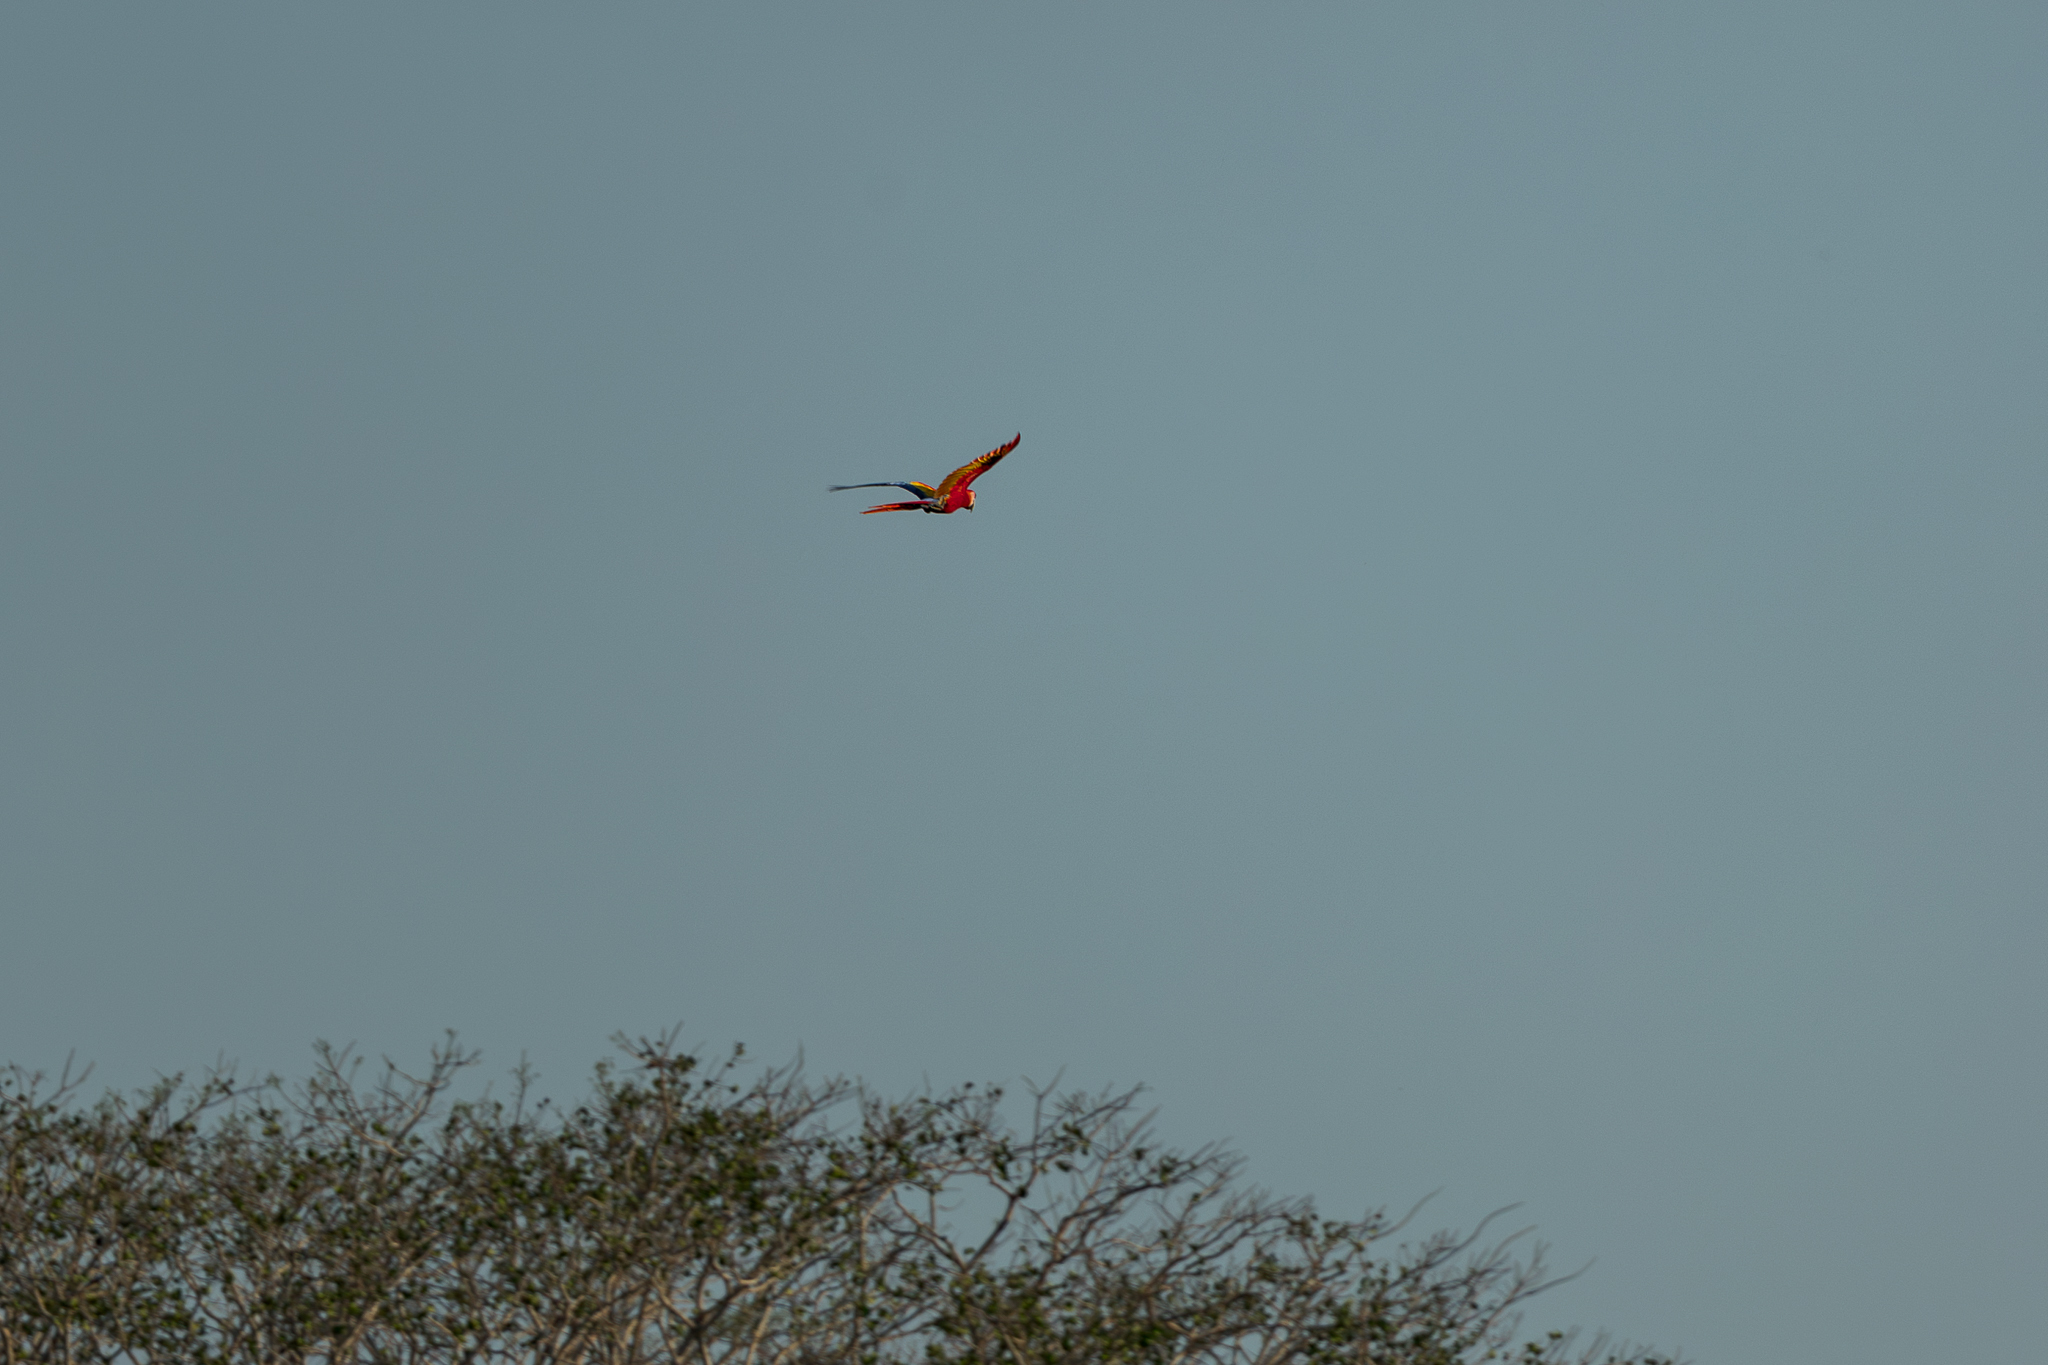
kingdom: Animalia
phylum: Chordata
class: Aves
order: Psittaciformes
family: Psittacidae
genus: Ara
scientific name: Ara macao
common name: Scarlet macaw
